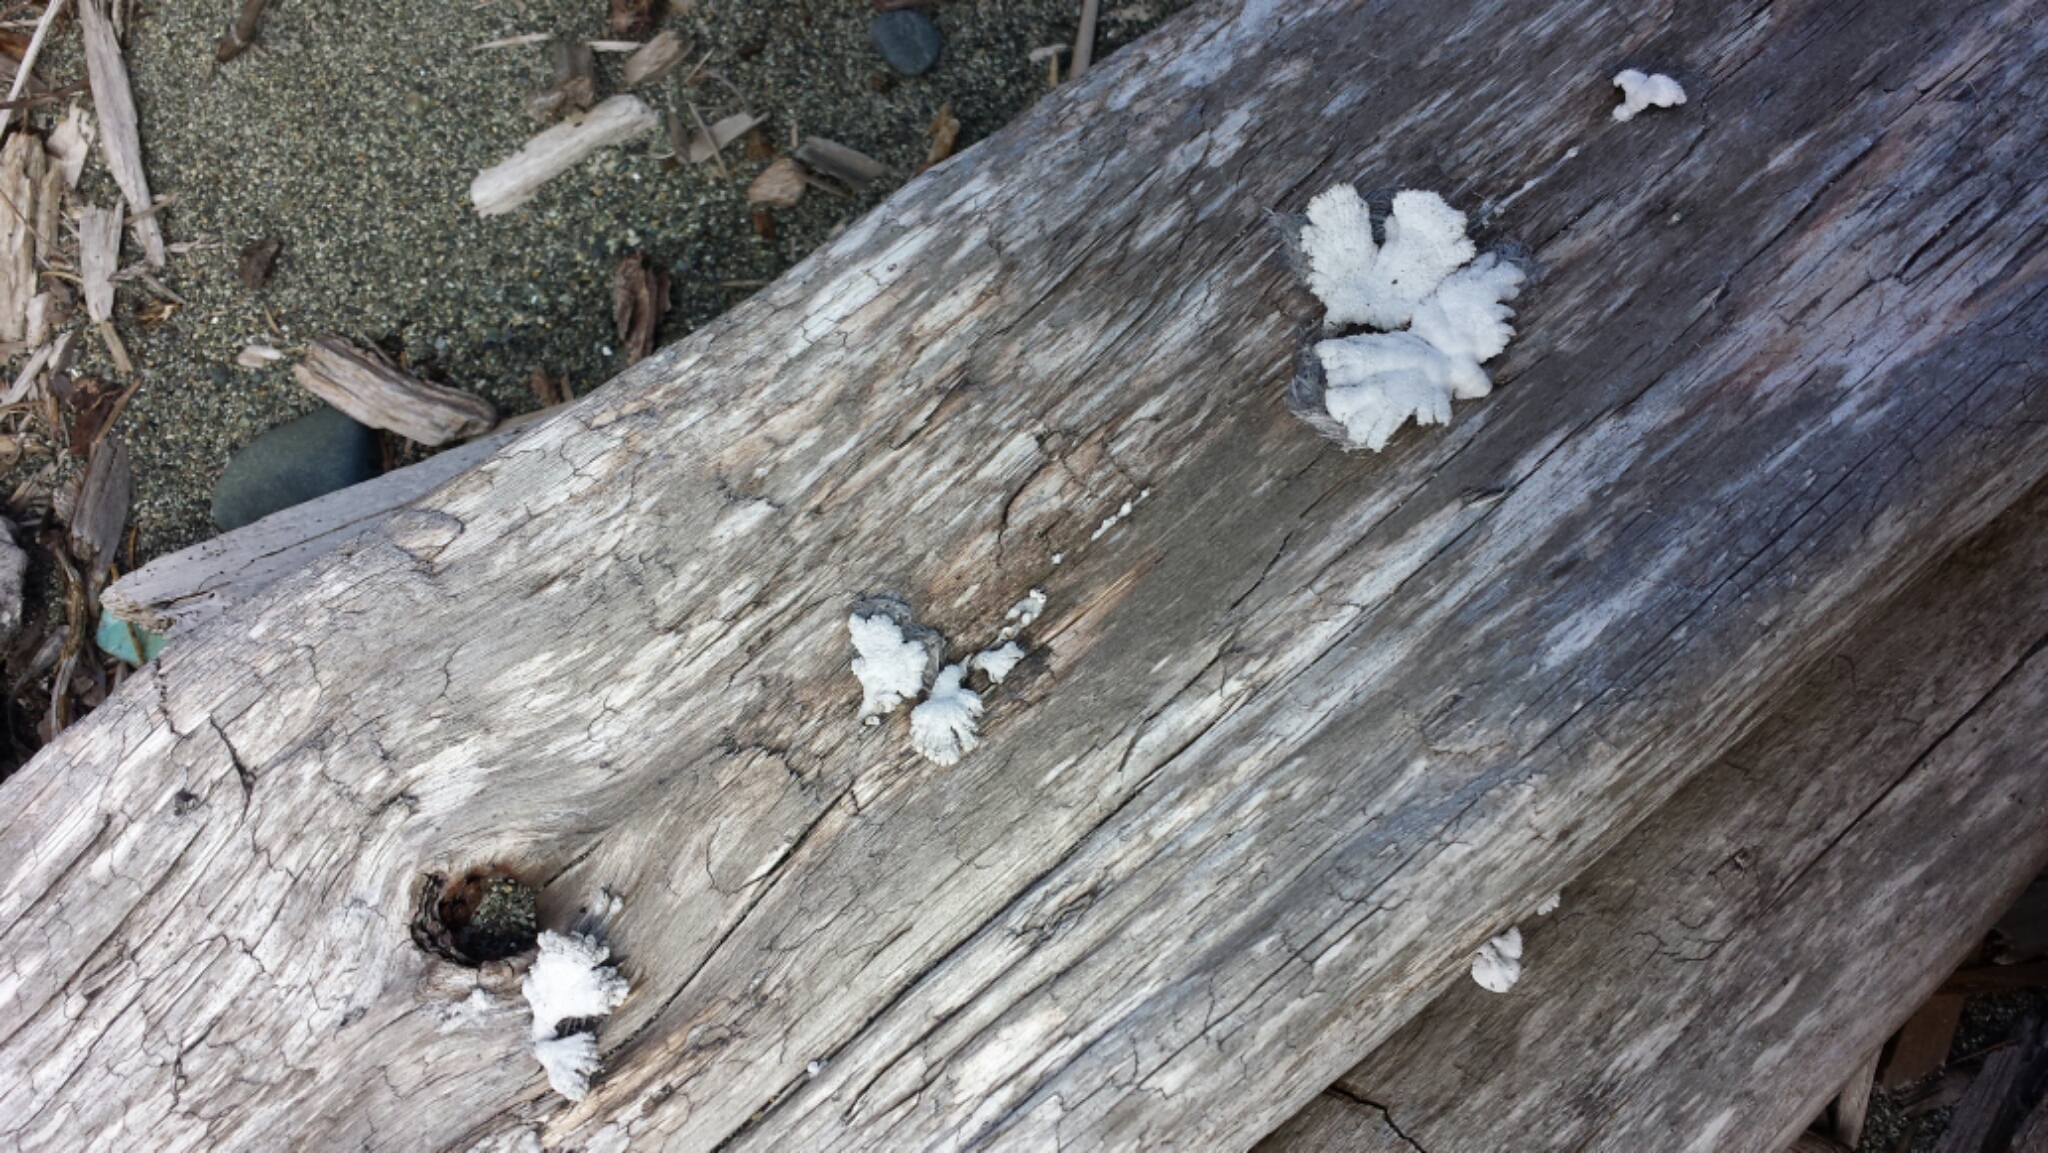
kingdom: Fungi
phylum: Basidiomycota
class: Agaricomycetes
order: Agaricales
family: Schizophyllaceae
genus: Schizophyllum
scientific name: Schizophyllum commune
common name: Common porecrust
